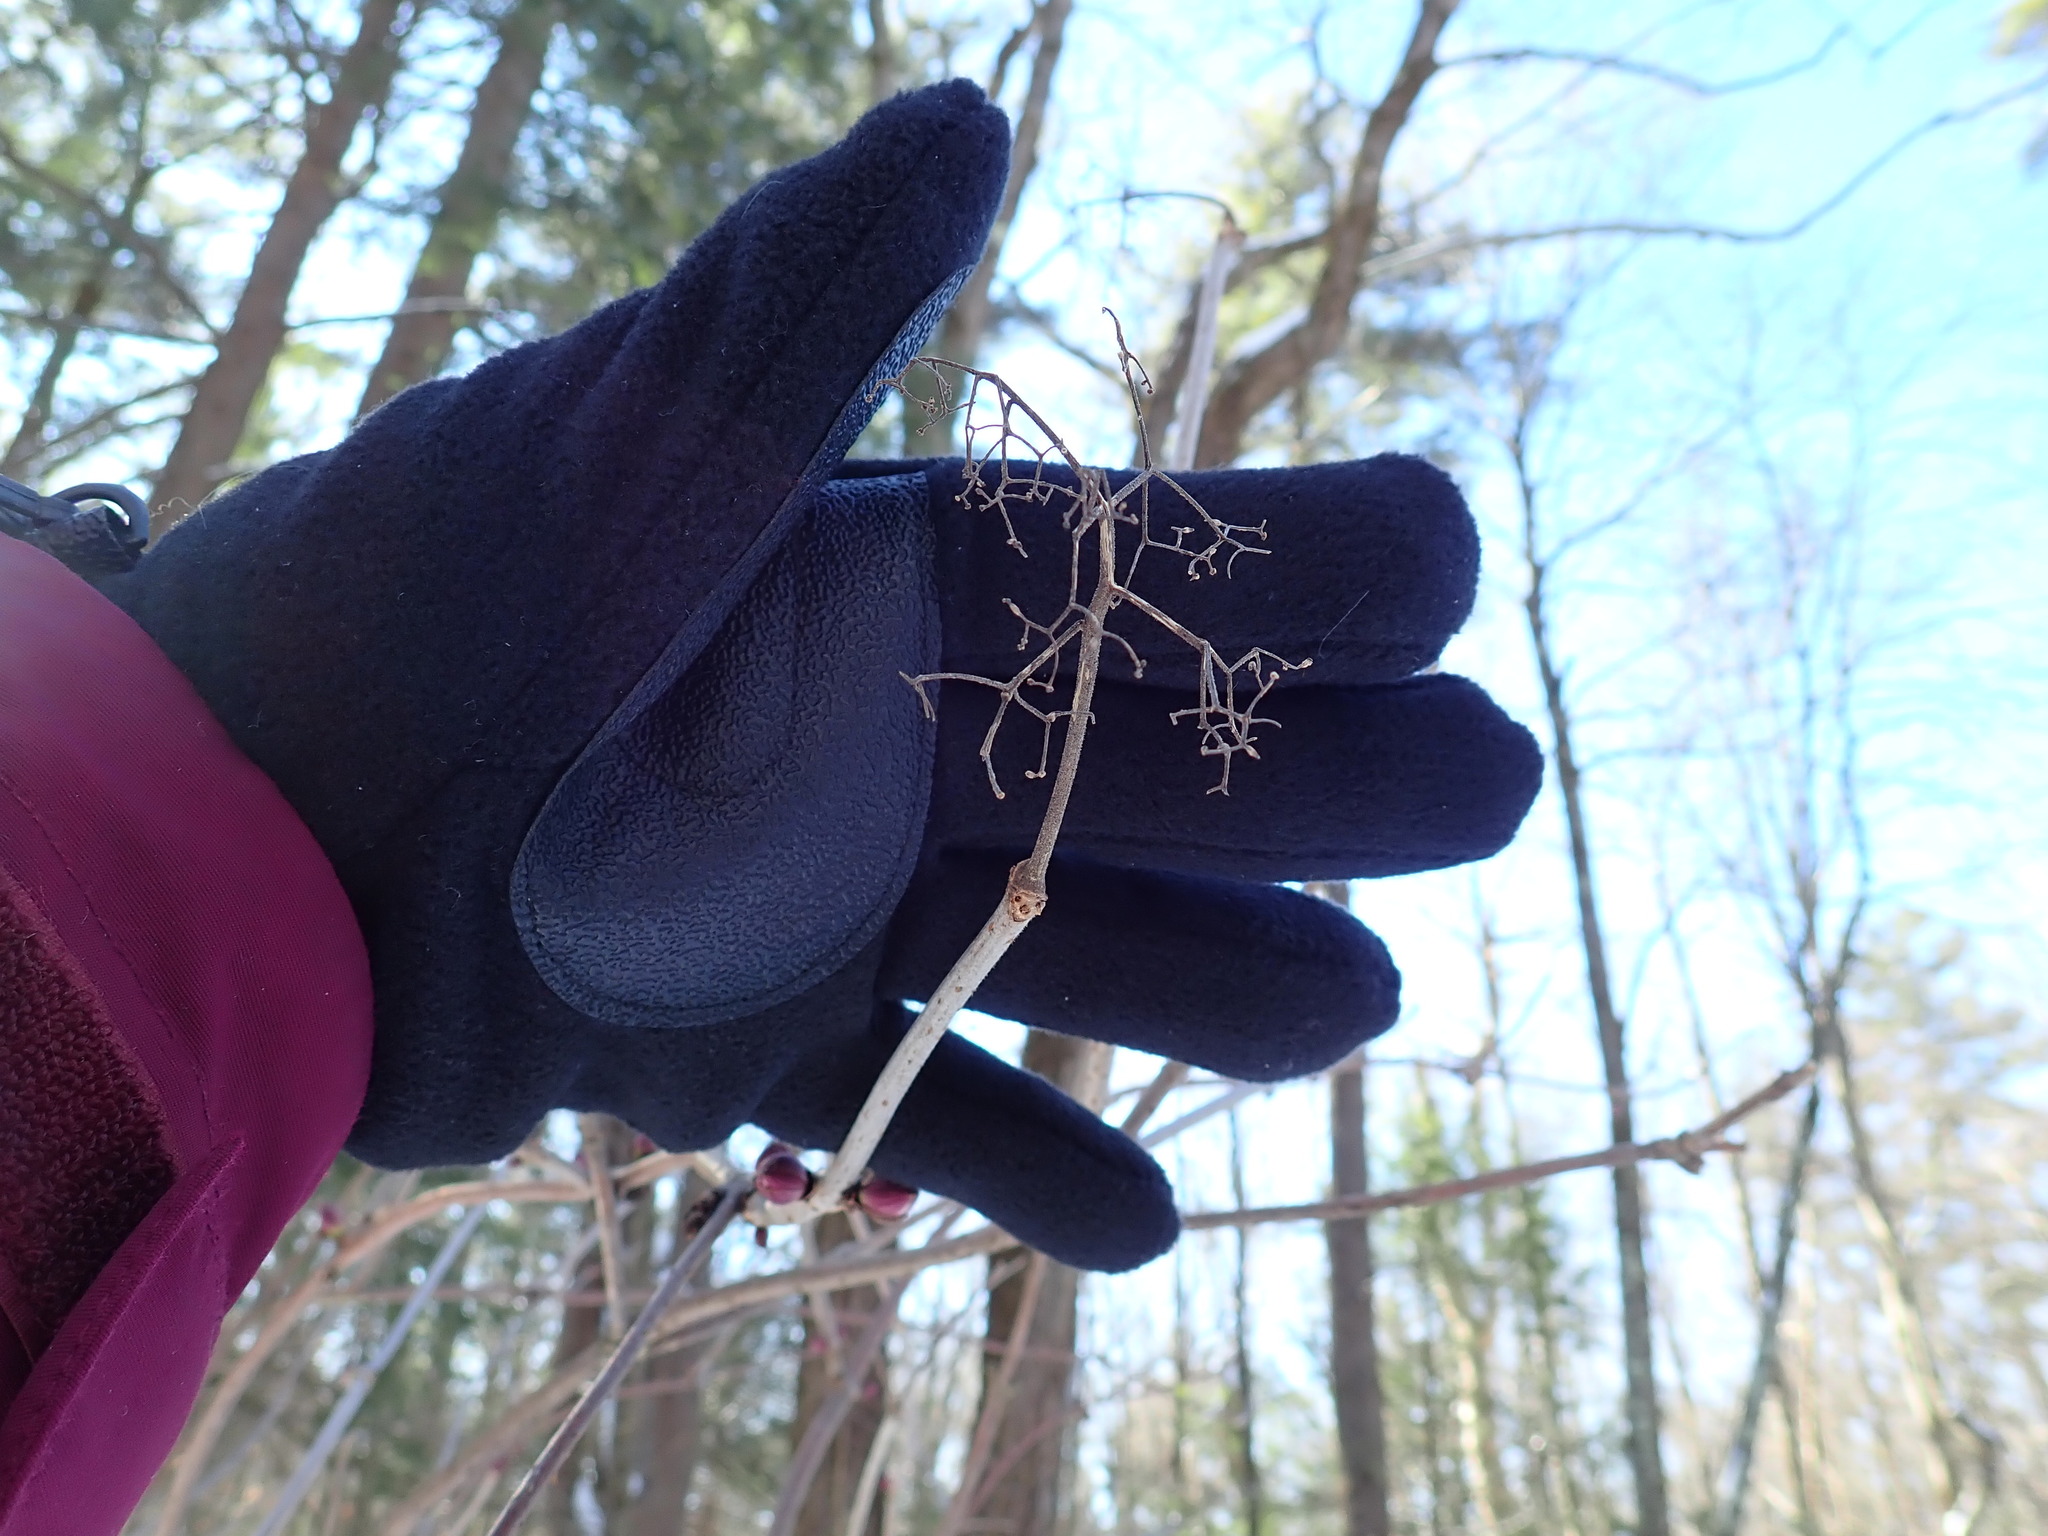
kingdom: Plantae
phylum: Tracheophyta
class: Magnoliopsida
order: Dipsacales
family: Viburnaceae
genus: Sambucus
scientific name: Sambucus racemosa
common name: Red-berried elder
